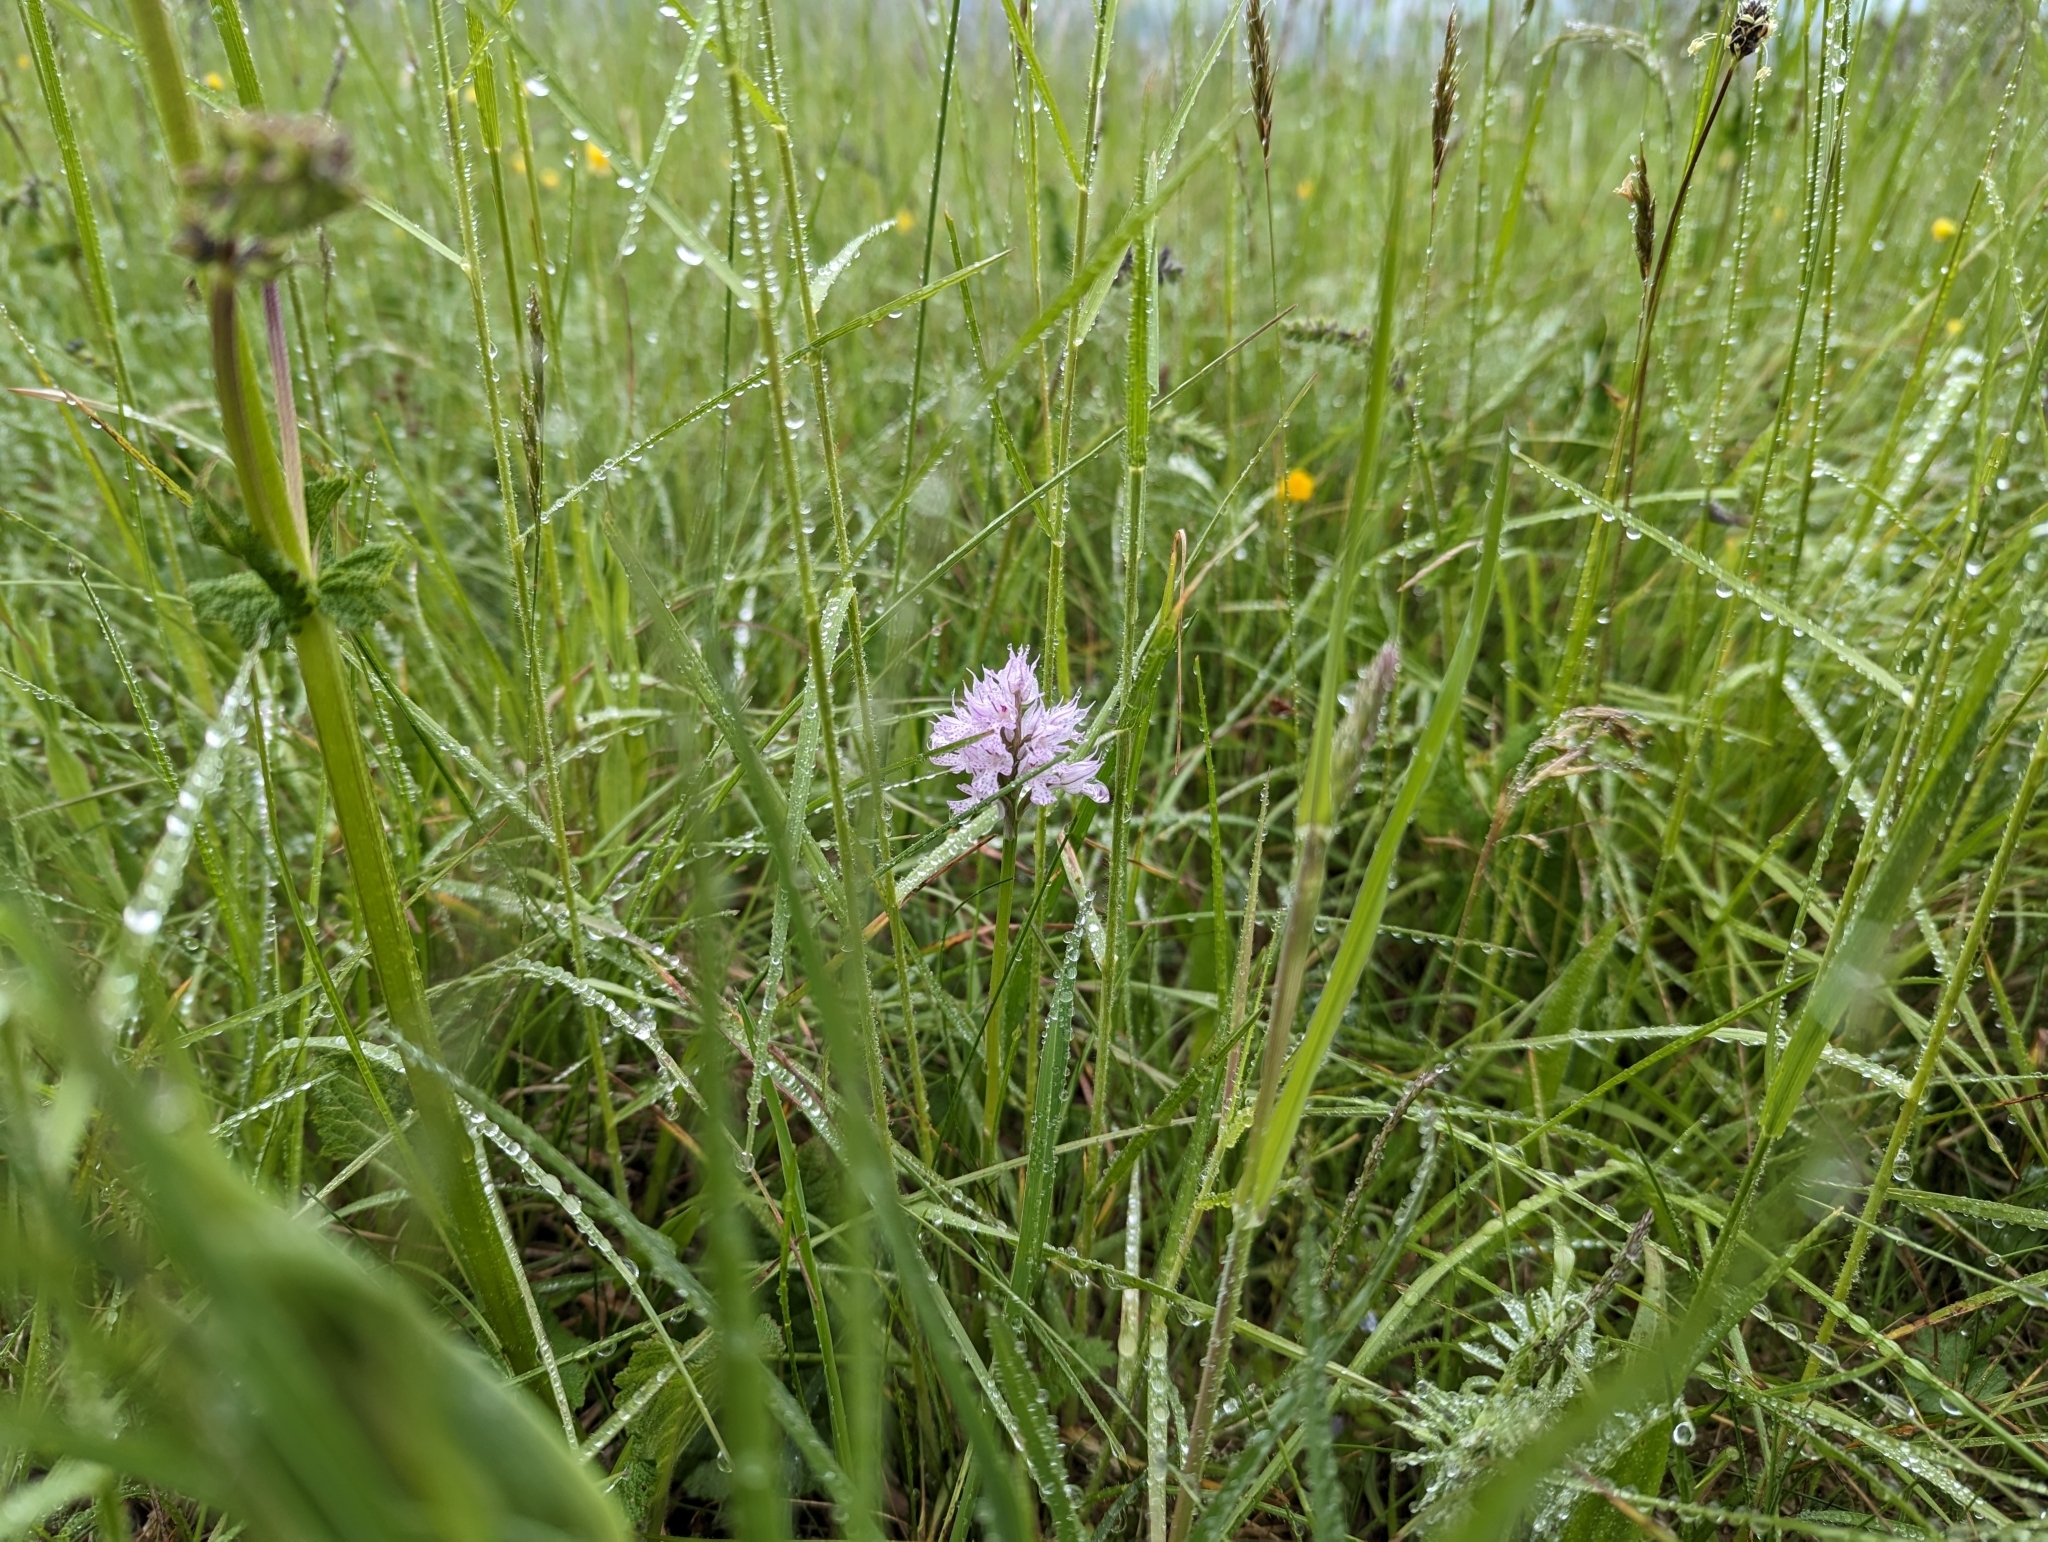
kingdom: Plantae
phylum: Tracheophyta
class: Liliopsida
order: Asparagales
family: Orchidaceae
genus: Neotinea
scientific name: Neotinea tridentata
